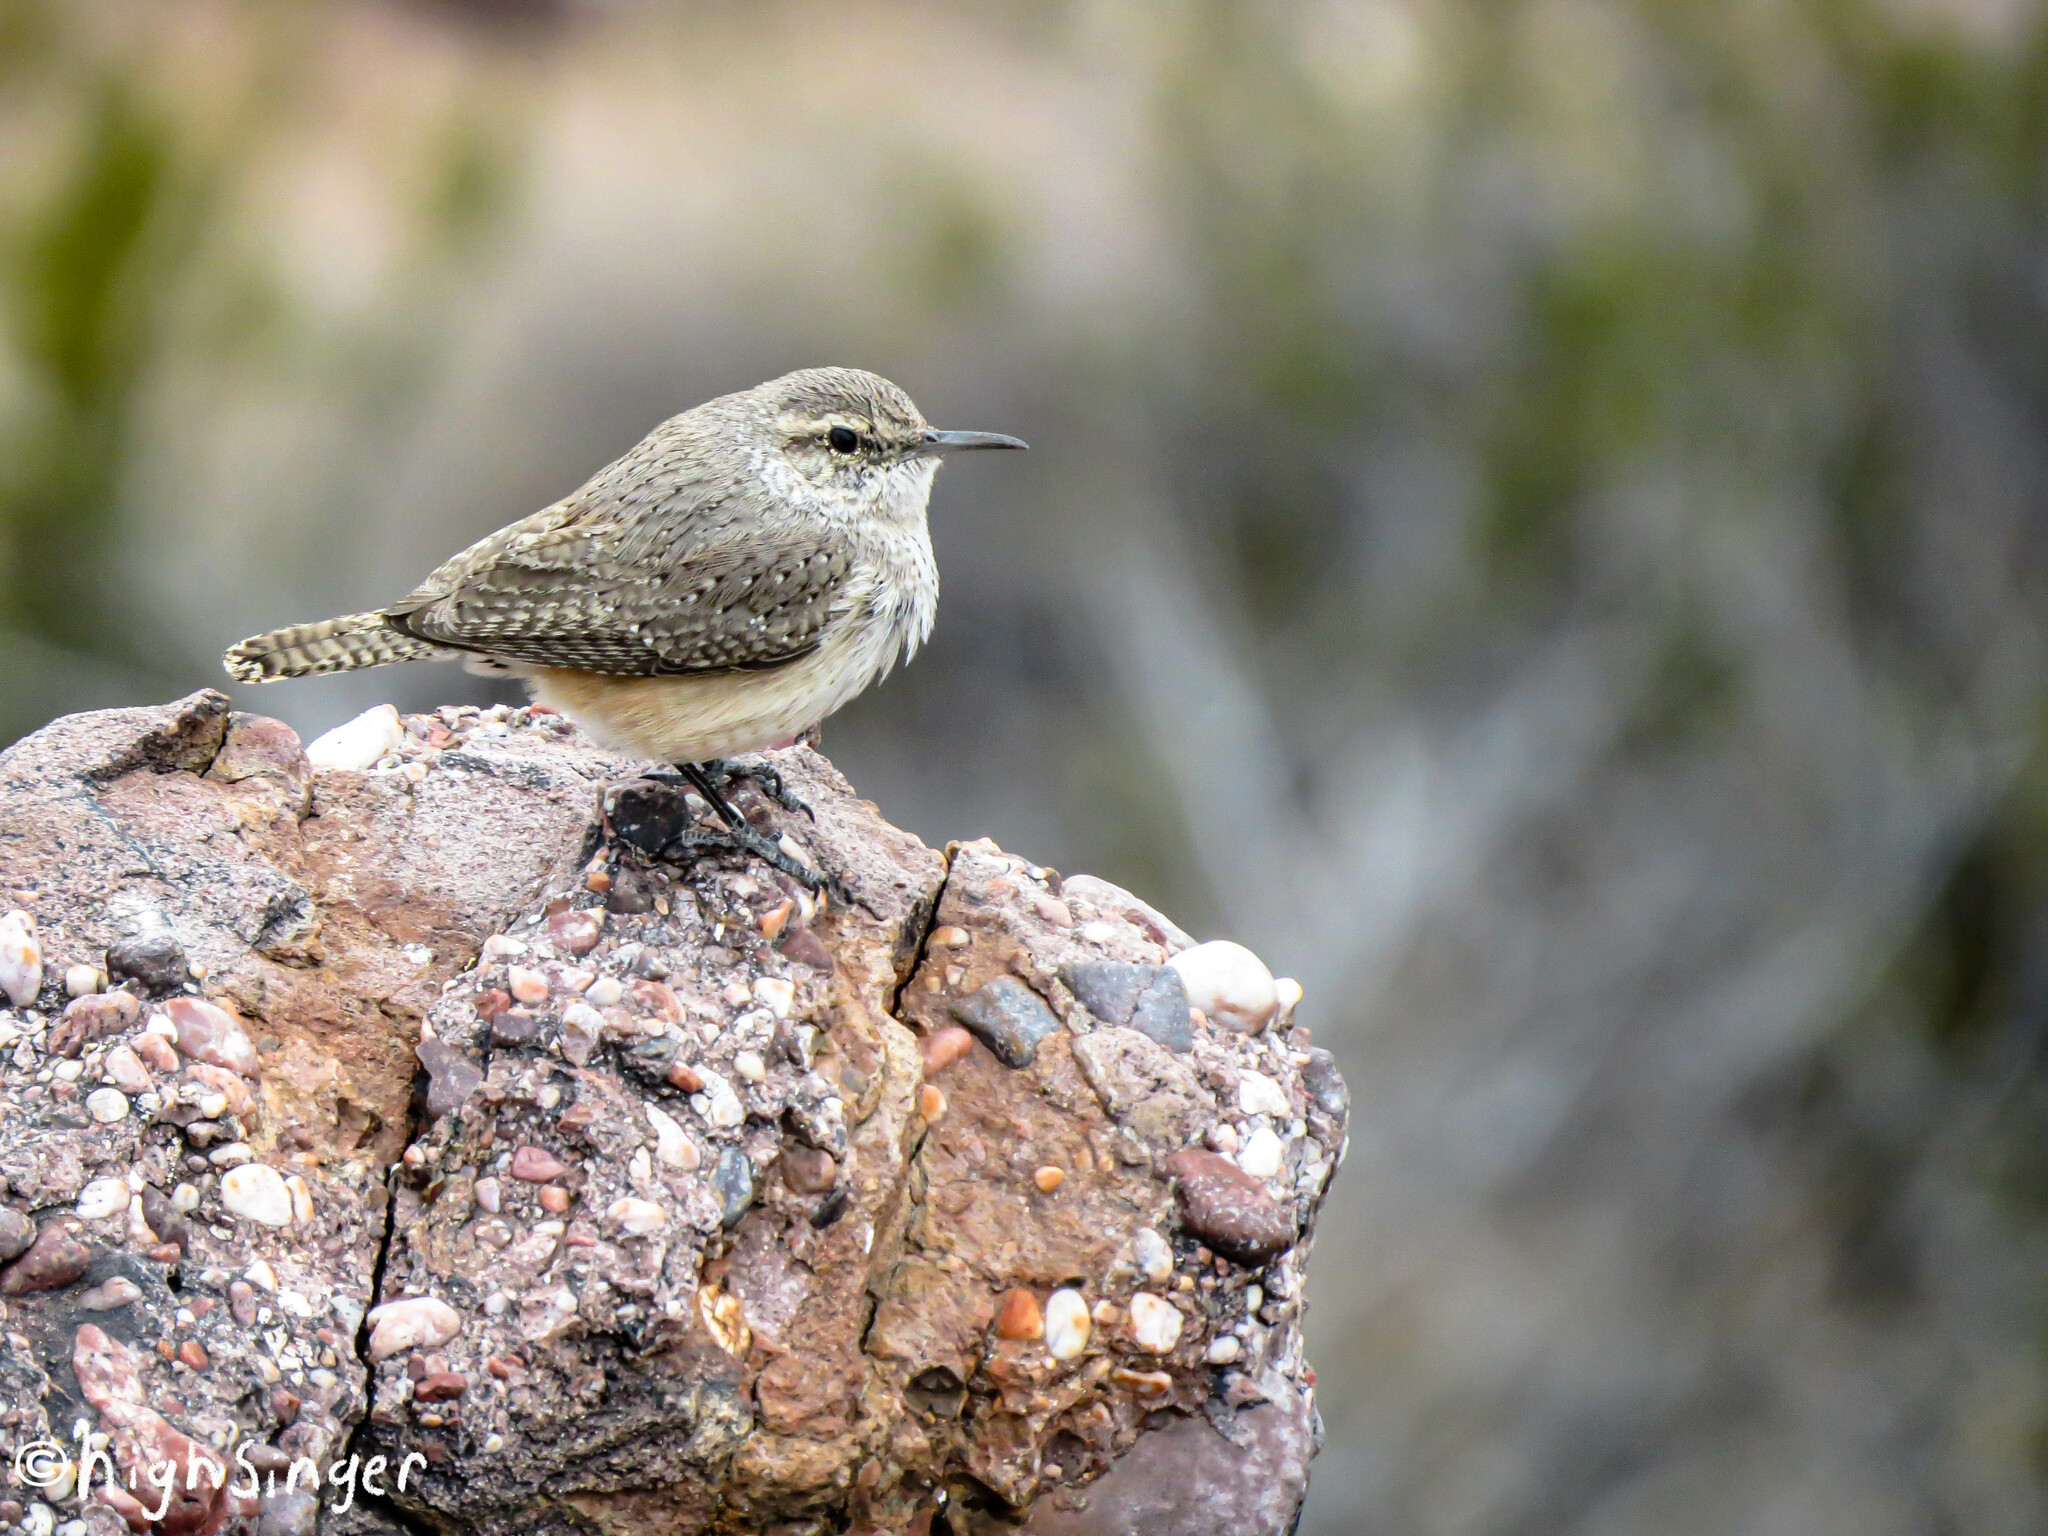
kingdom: Animalia
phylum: Chordata
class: Aves
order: Passeriformes
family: Troglodytidae
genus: Salpinctes
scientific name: Salpinctes obsoletus
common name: Rock wren
